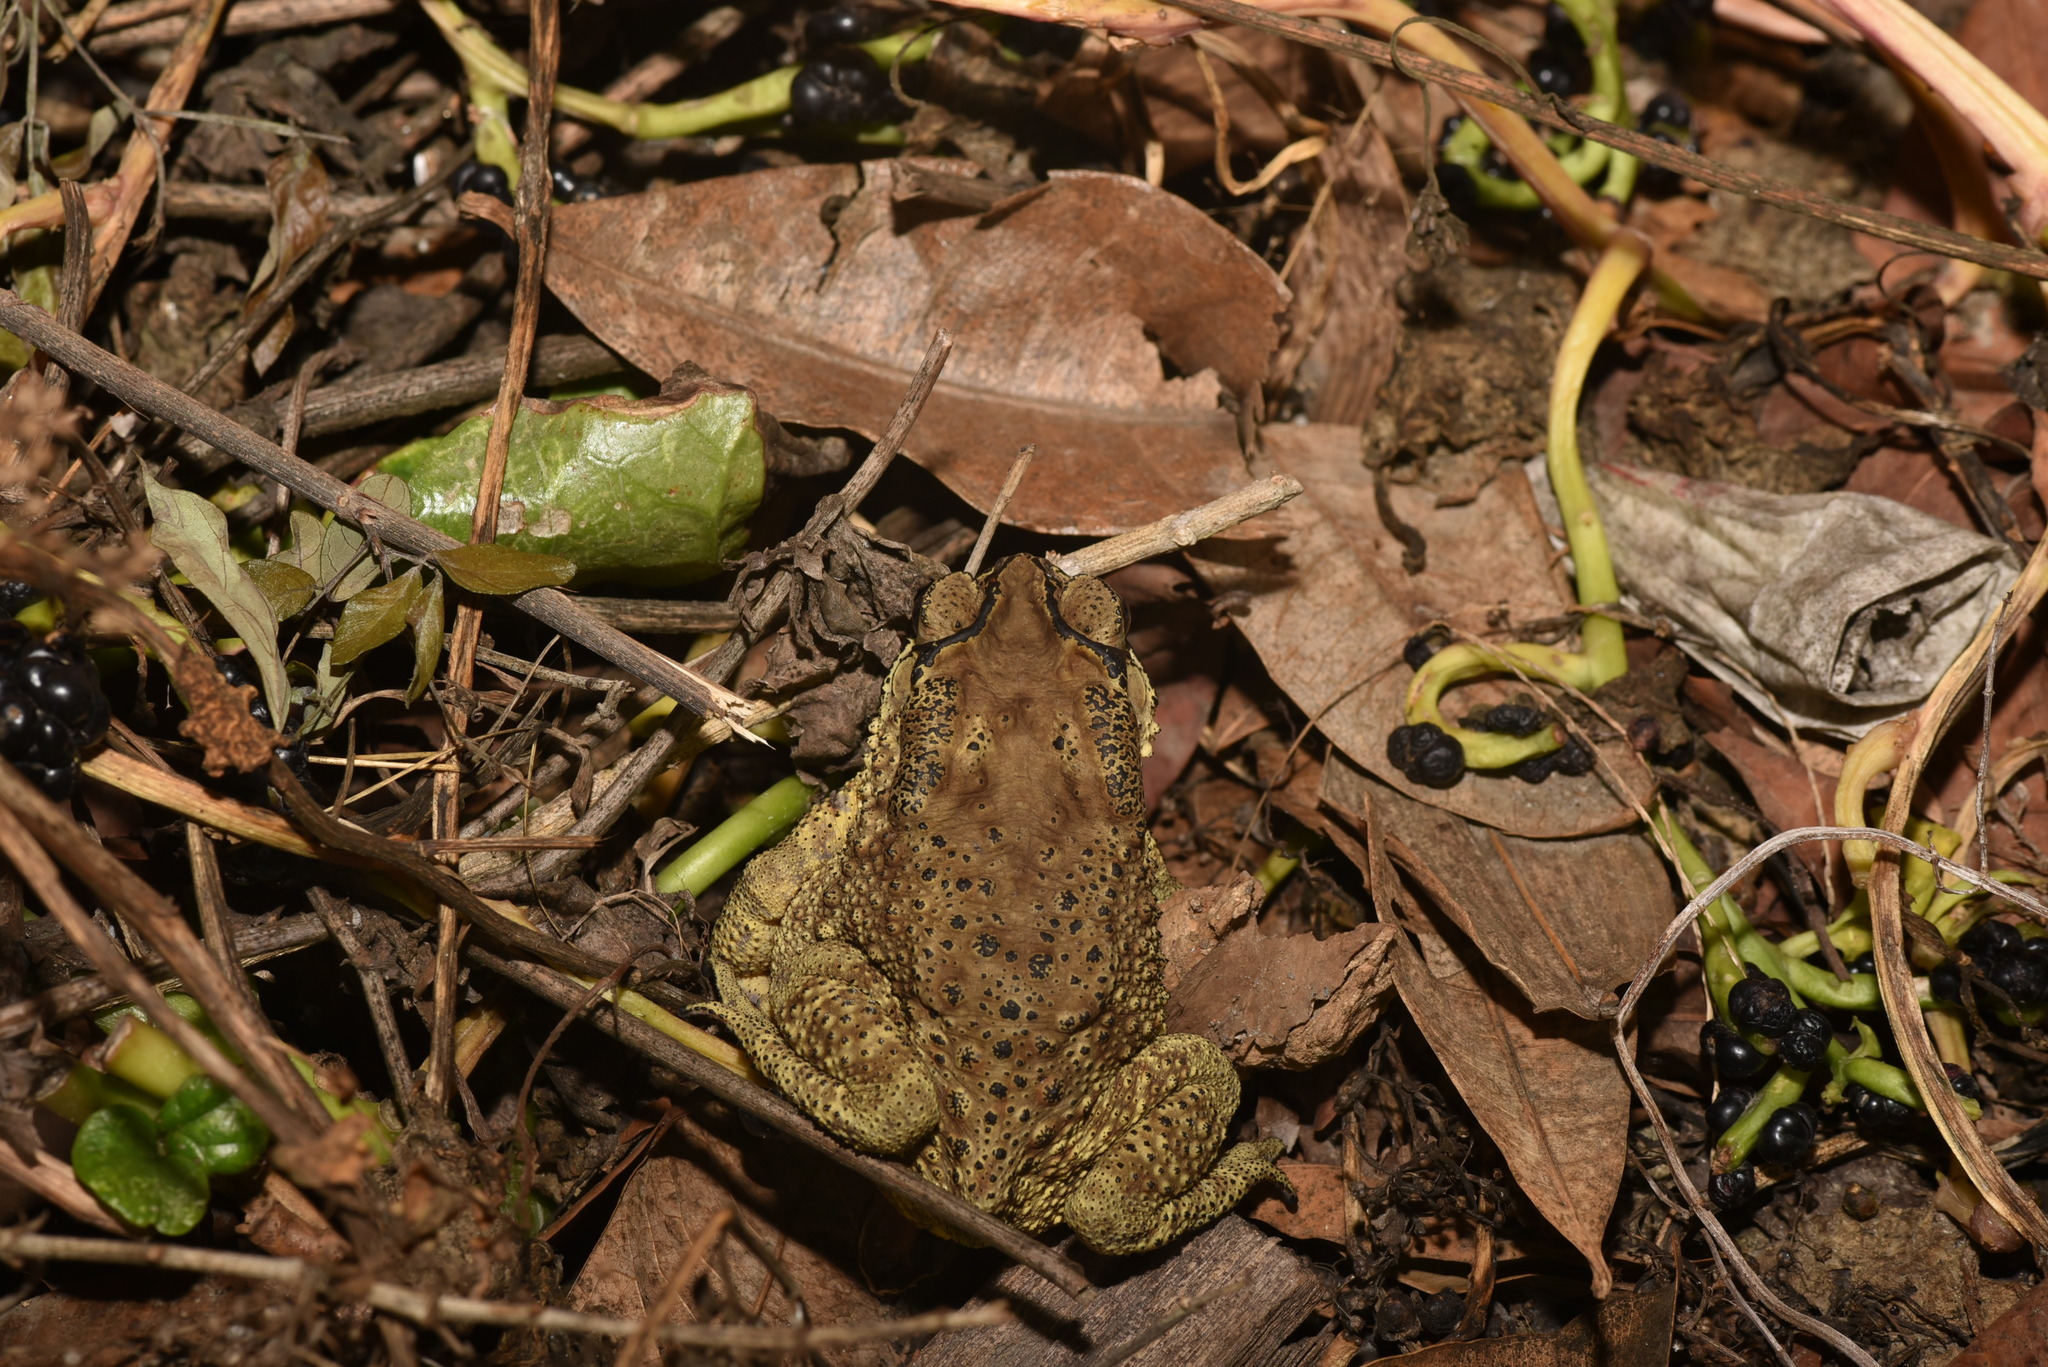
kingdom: Animalia
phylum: Chordata
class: Amphibia
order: Anura
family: Bufonidae
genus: Duttaphrynus
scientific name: Duttaphrynus melanostictus
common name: Common sunda toad
